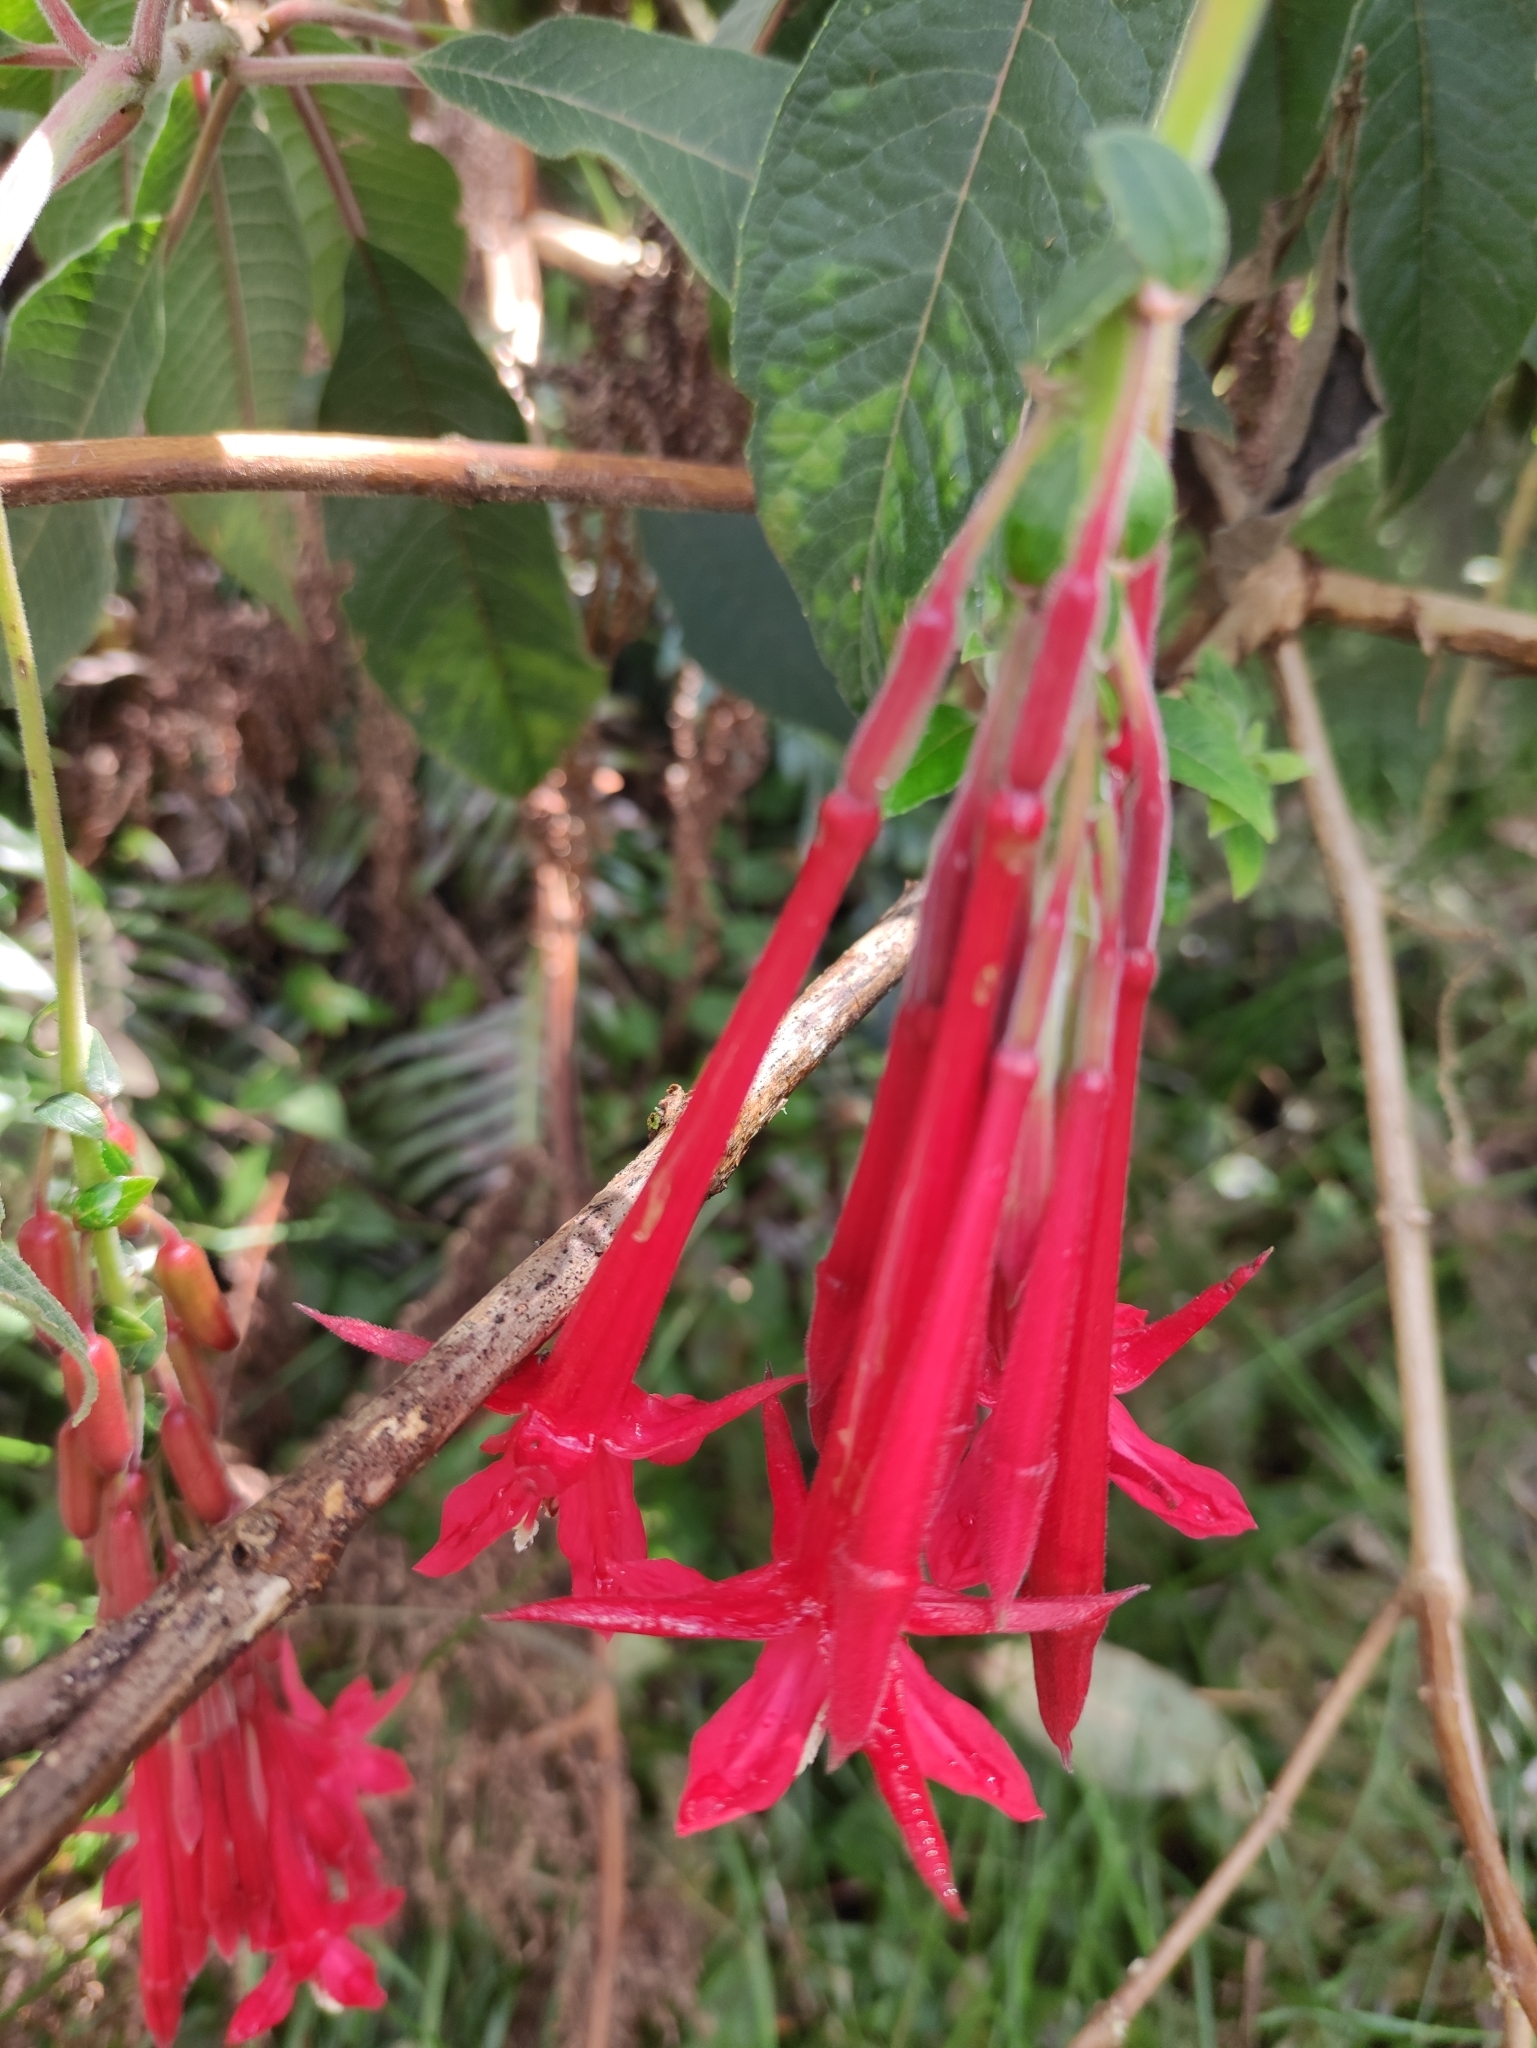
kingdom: Plantae
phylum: Tracheophyta
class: Magnoliopsida
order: Myrtales
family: Onagraceae
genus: Fuchsia
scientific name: Fuchsia boliviana
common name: Bolivian fuchsia
